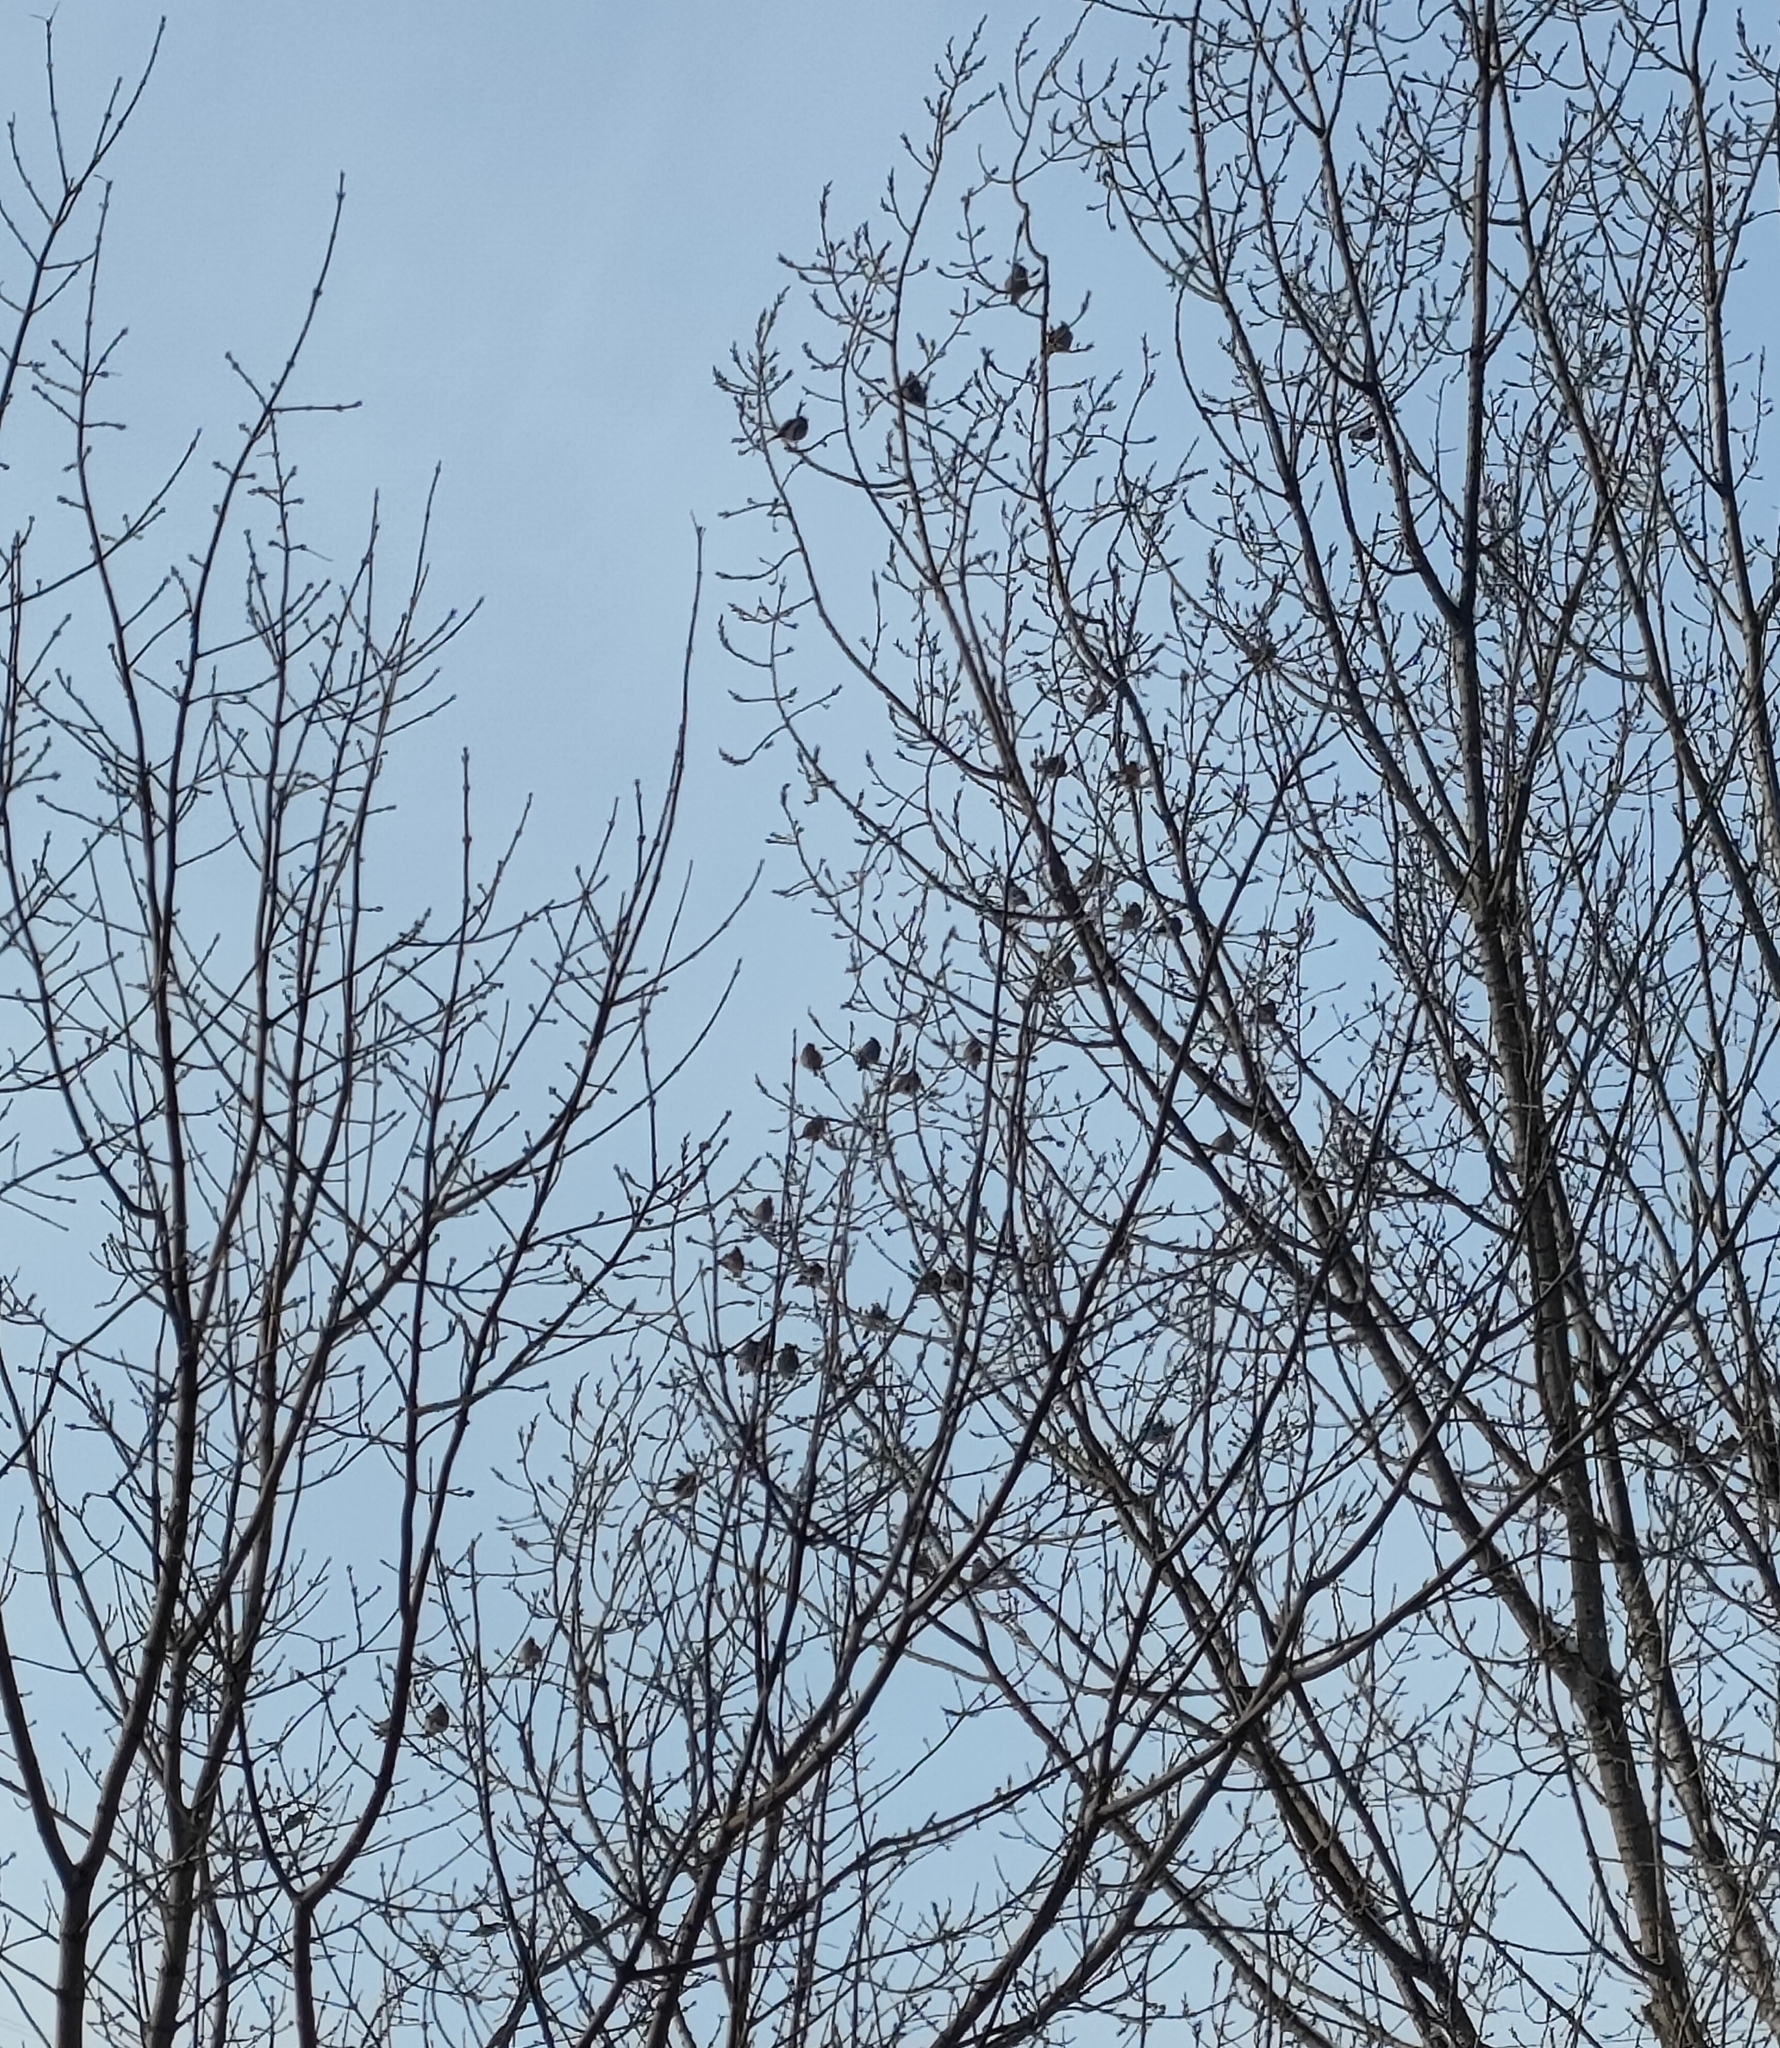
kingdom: Animalia
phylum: Chordata
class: Aves
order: Passeriformes
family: Bombycillidae
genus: Bombycilla
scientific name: Bombycilla garrulus
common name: Bohemian waxwing
